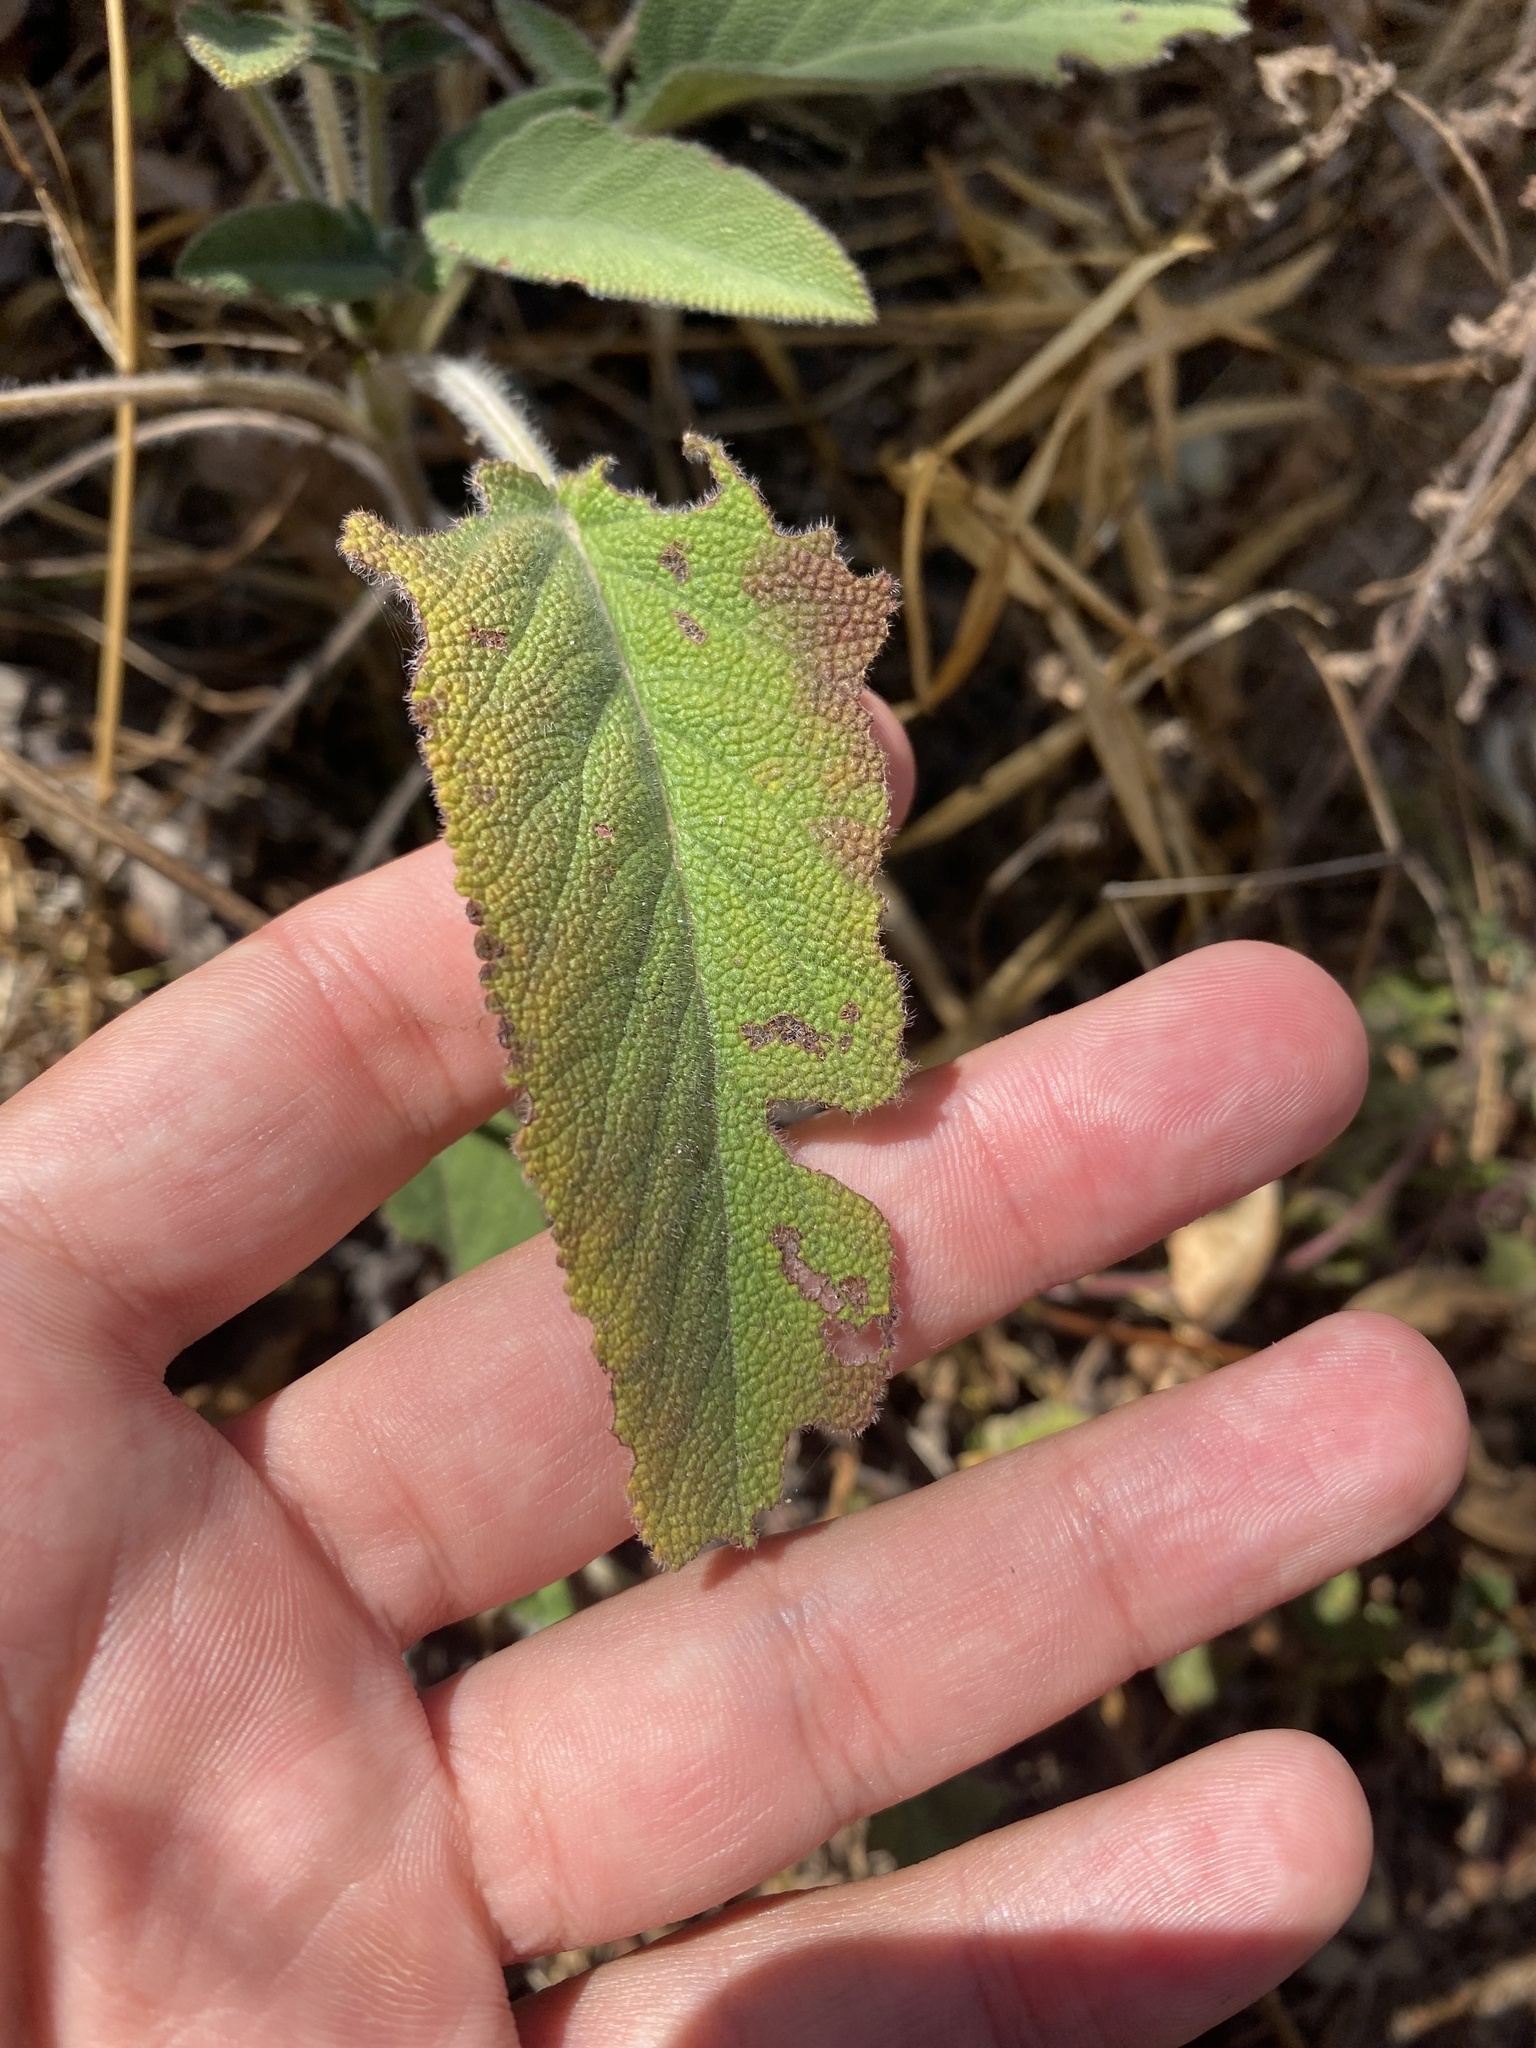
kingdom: Plantae
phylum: Tracheophyta
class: Magnoliopsida
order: Lamiales
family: Lamiaceae
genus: Salvia
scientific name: Salvia ringens
